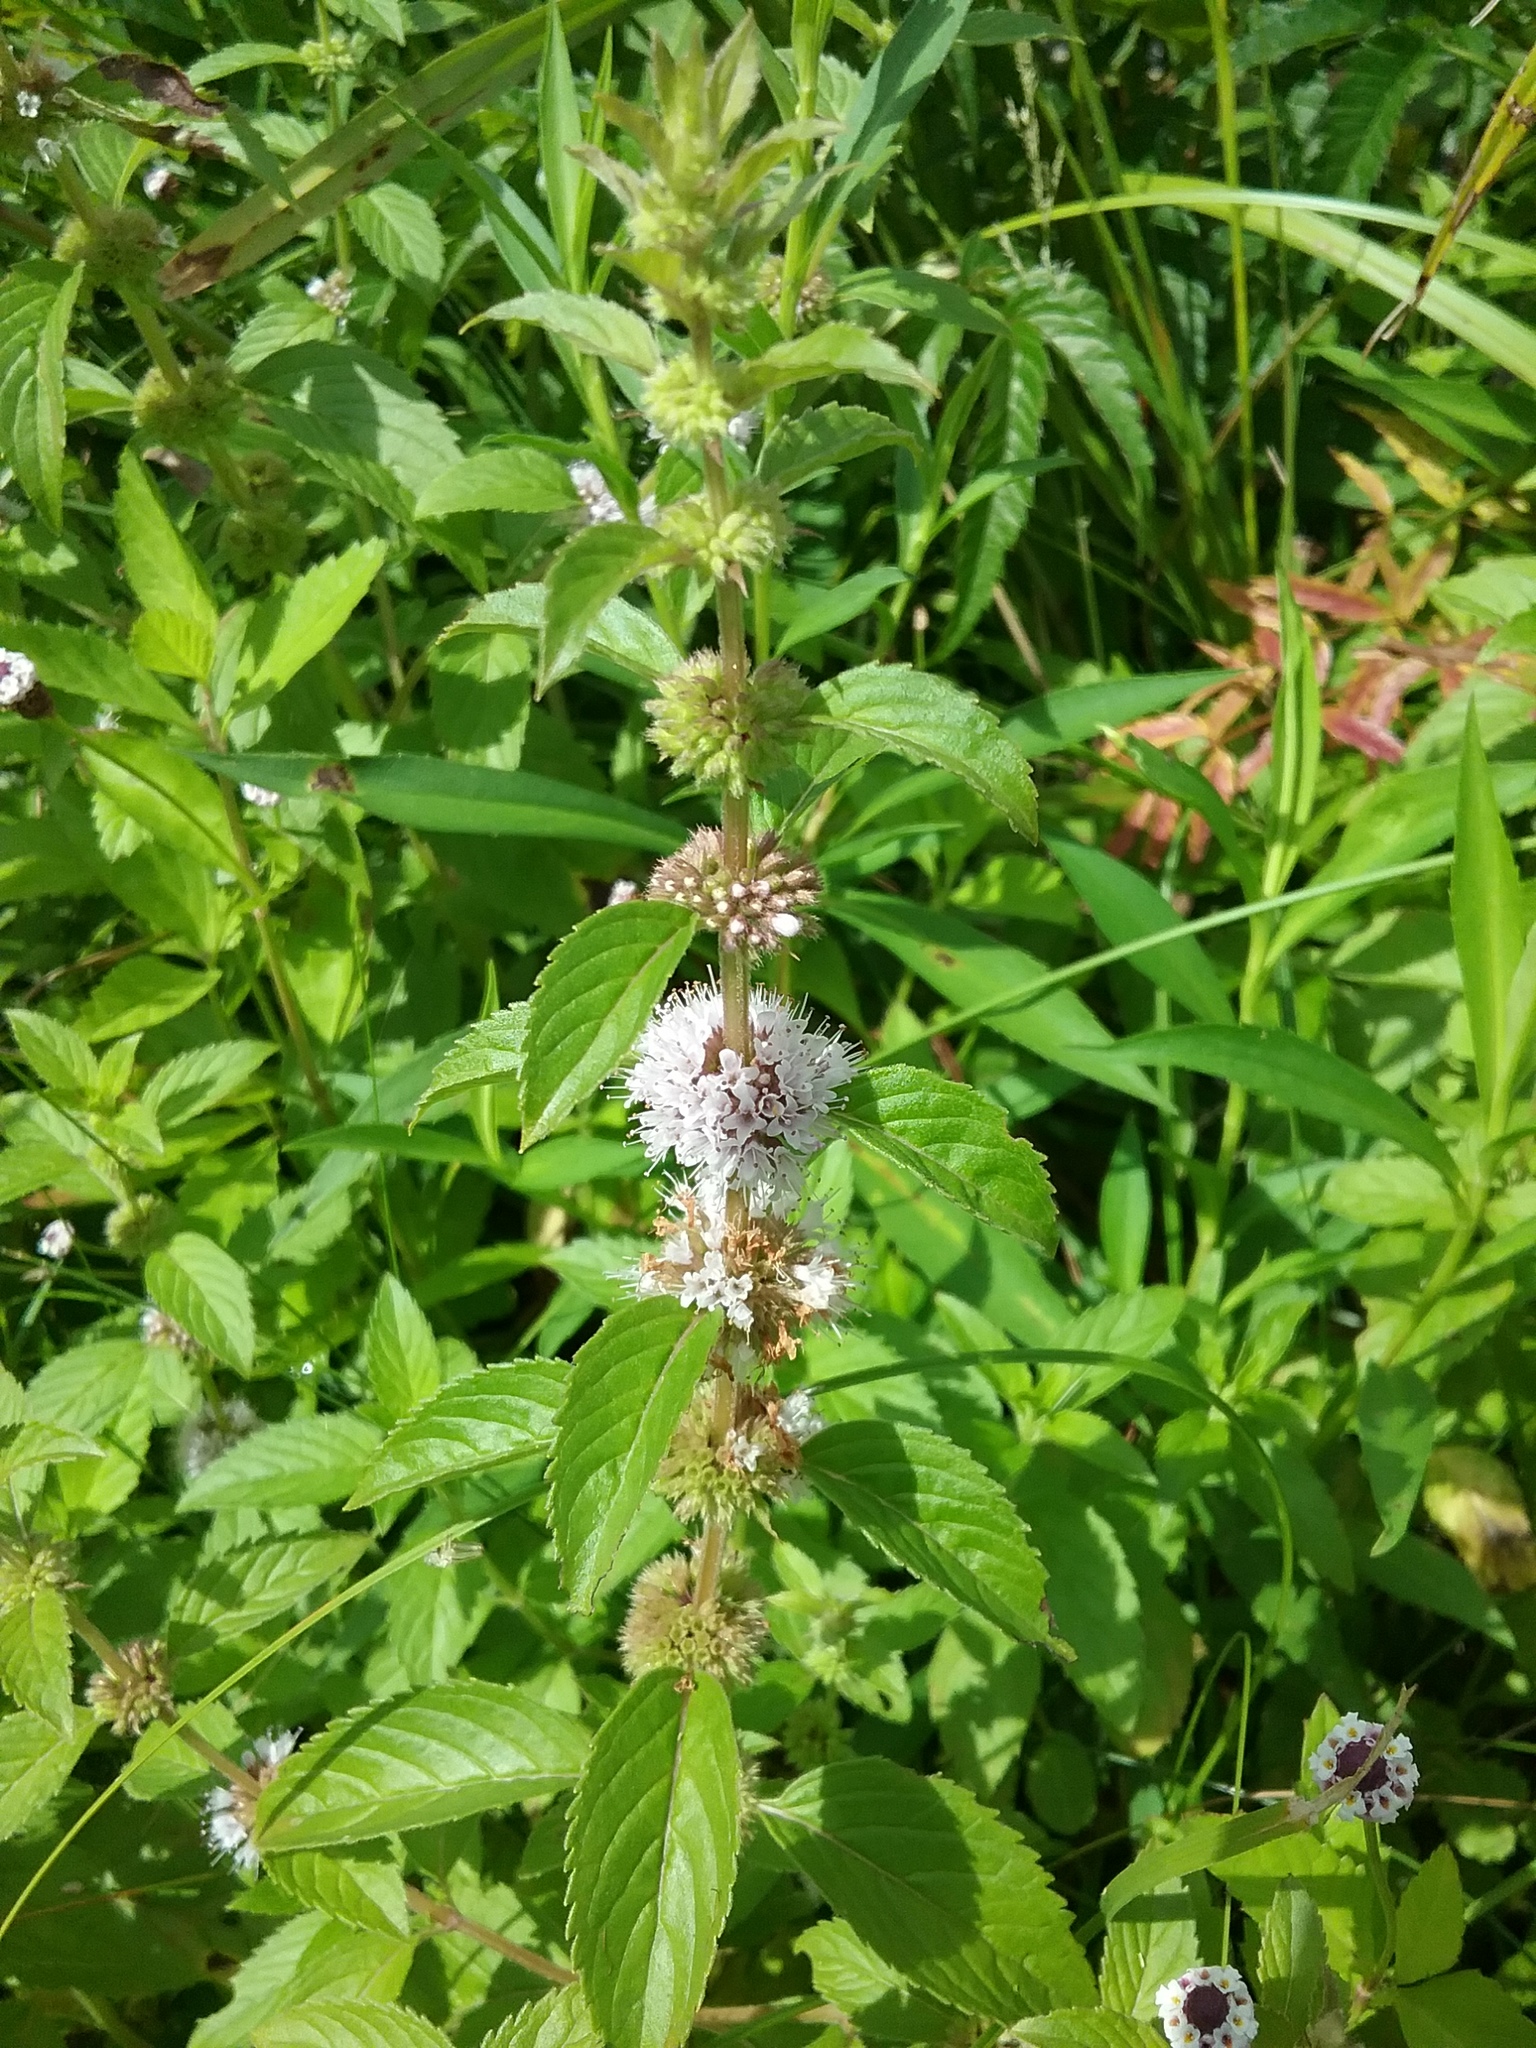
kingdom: Plantae
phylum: Tracheophyta
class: Magnoliopsida
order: Lamiales
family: Lamiaceae
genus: Mentha
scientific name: Mentha canadensis
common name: American corn mint
